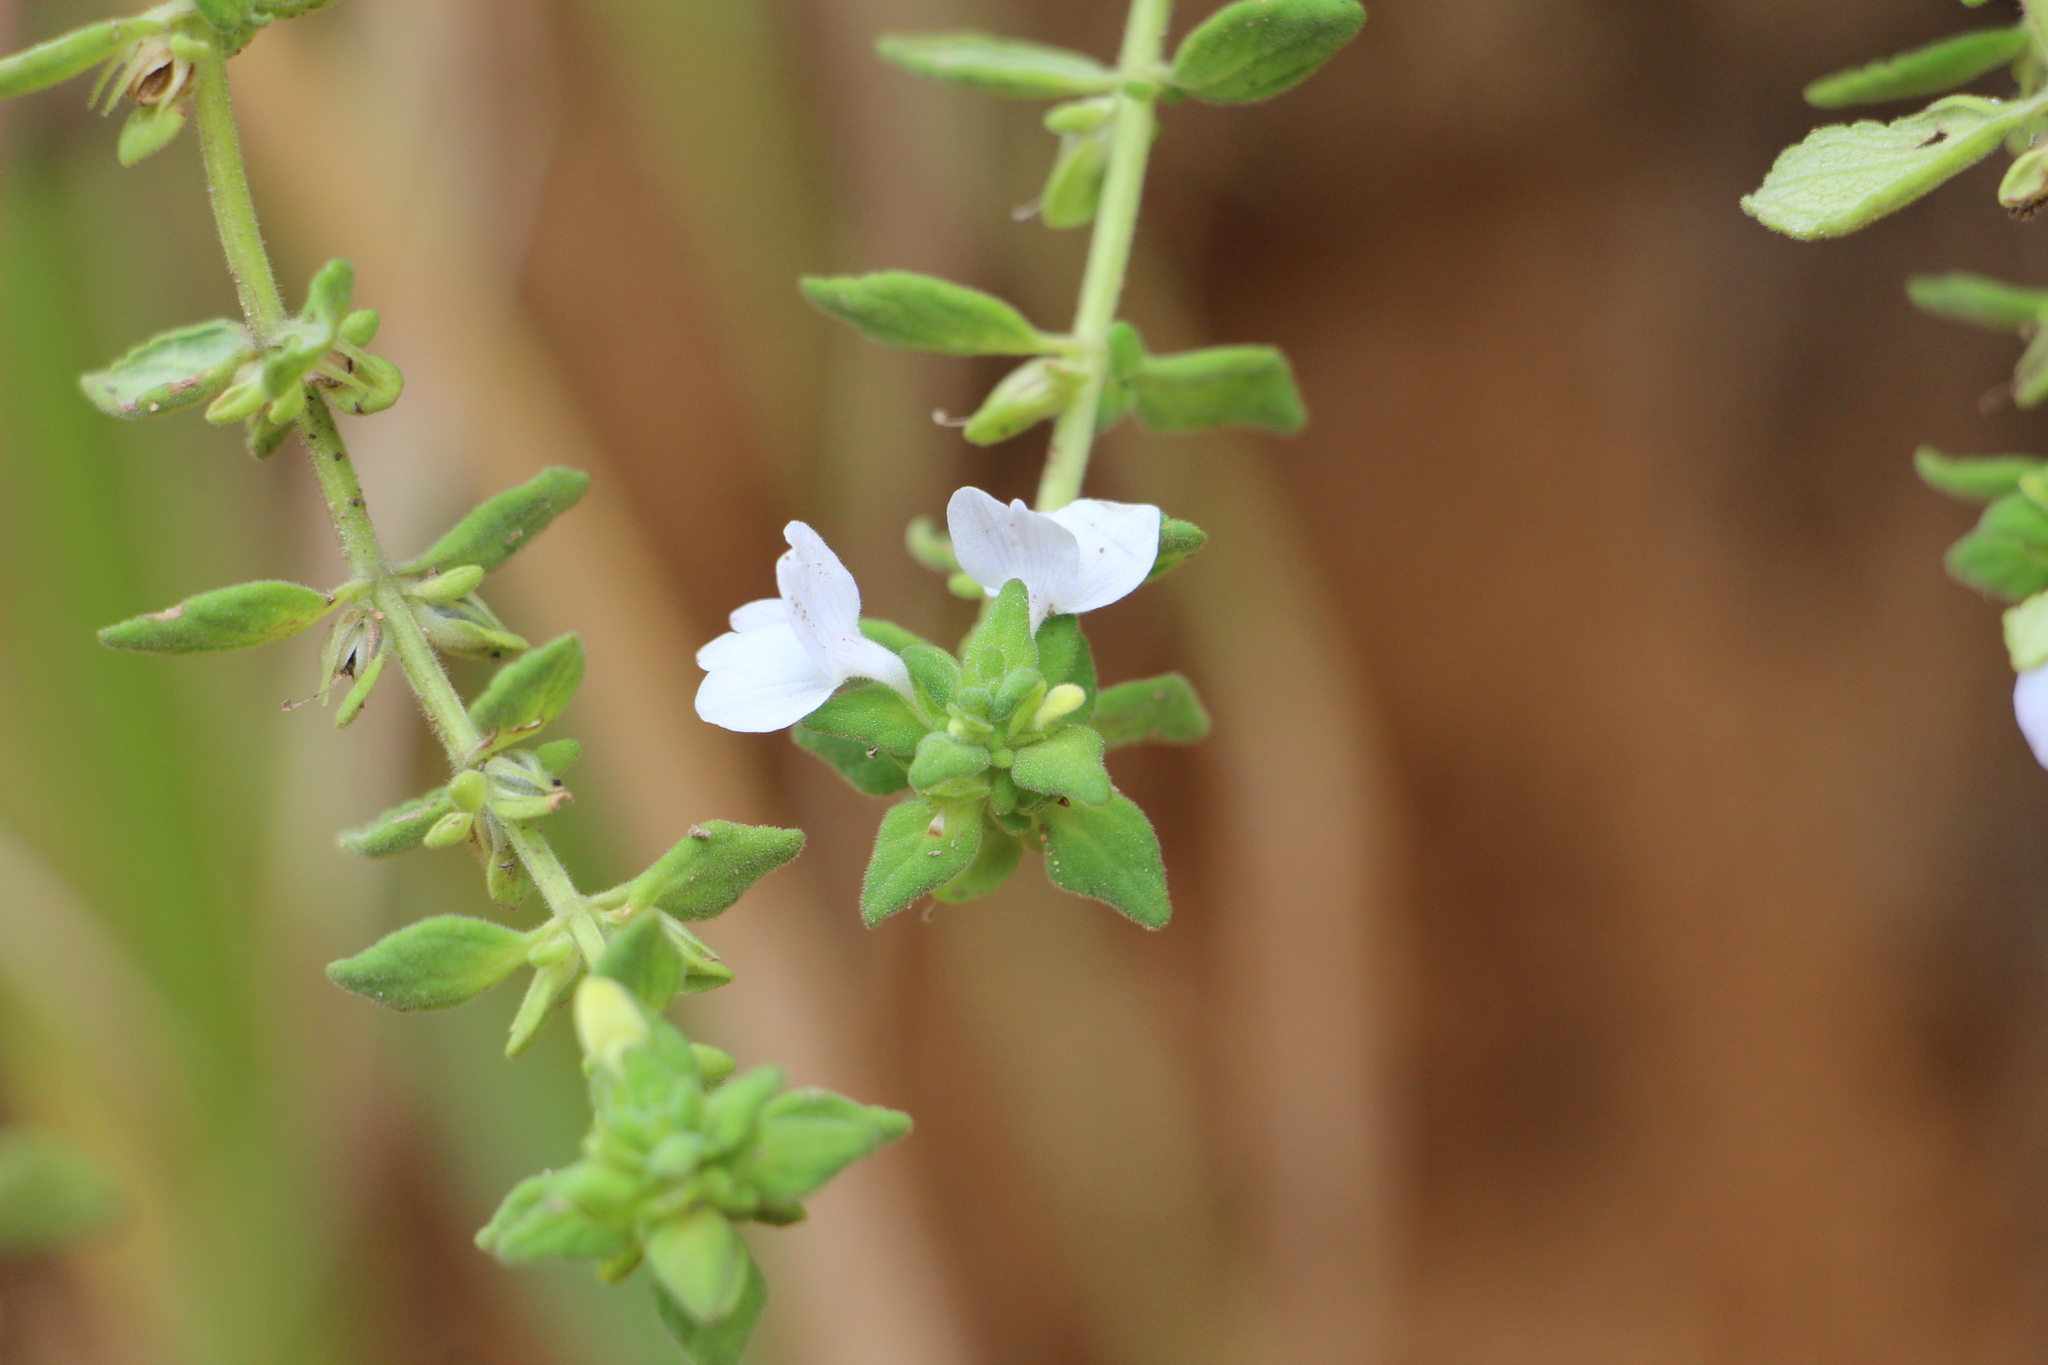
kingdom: Plantae
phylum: Tracheophyta
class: Magnoliopsida
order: Lamiales
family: Plantaginaceae
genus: Matourea
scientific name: Matourea erecta
